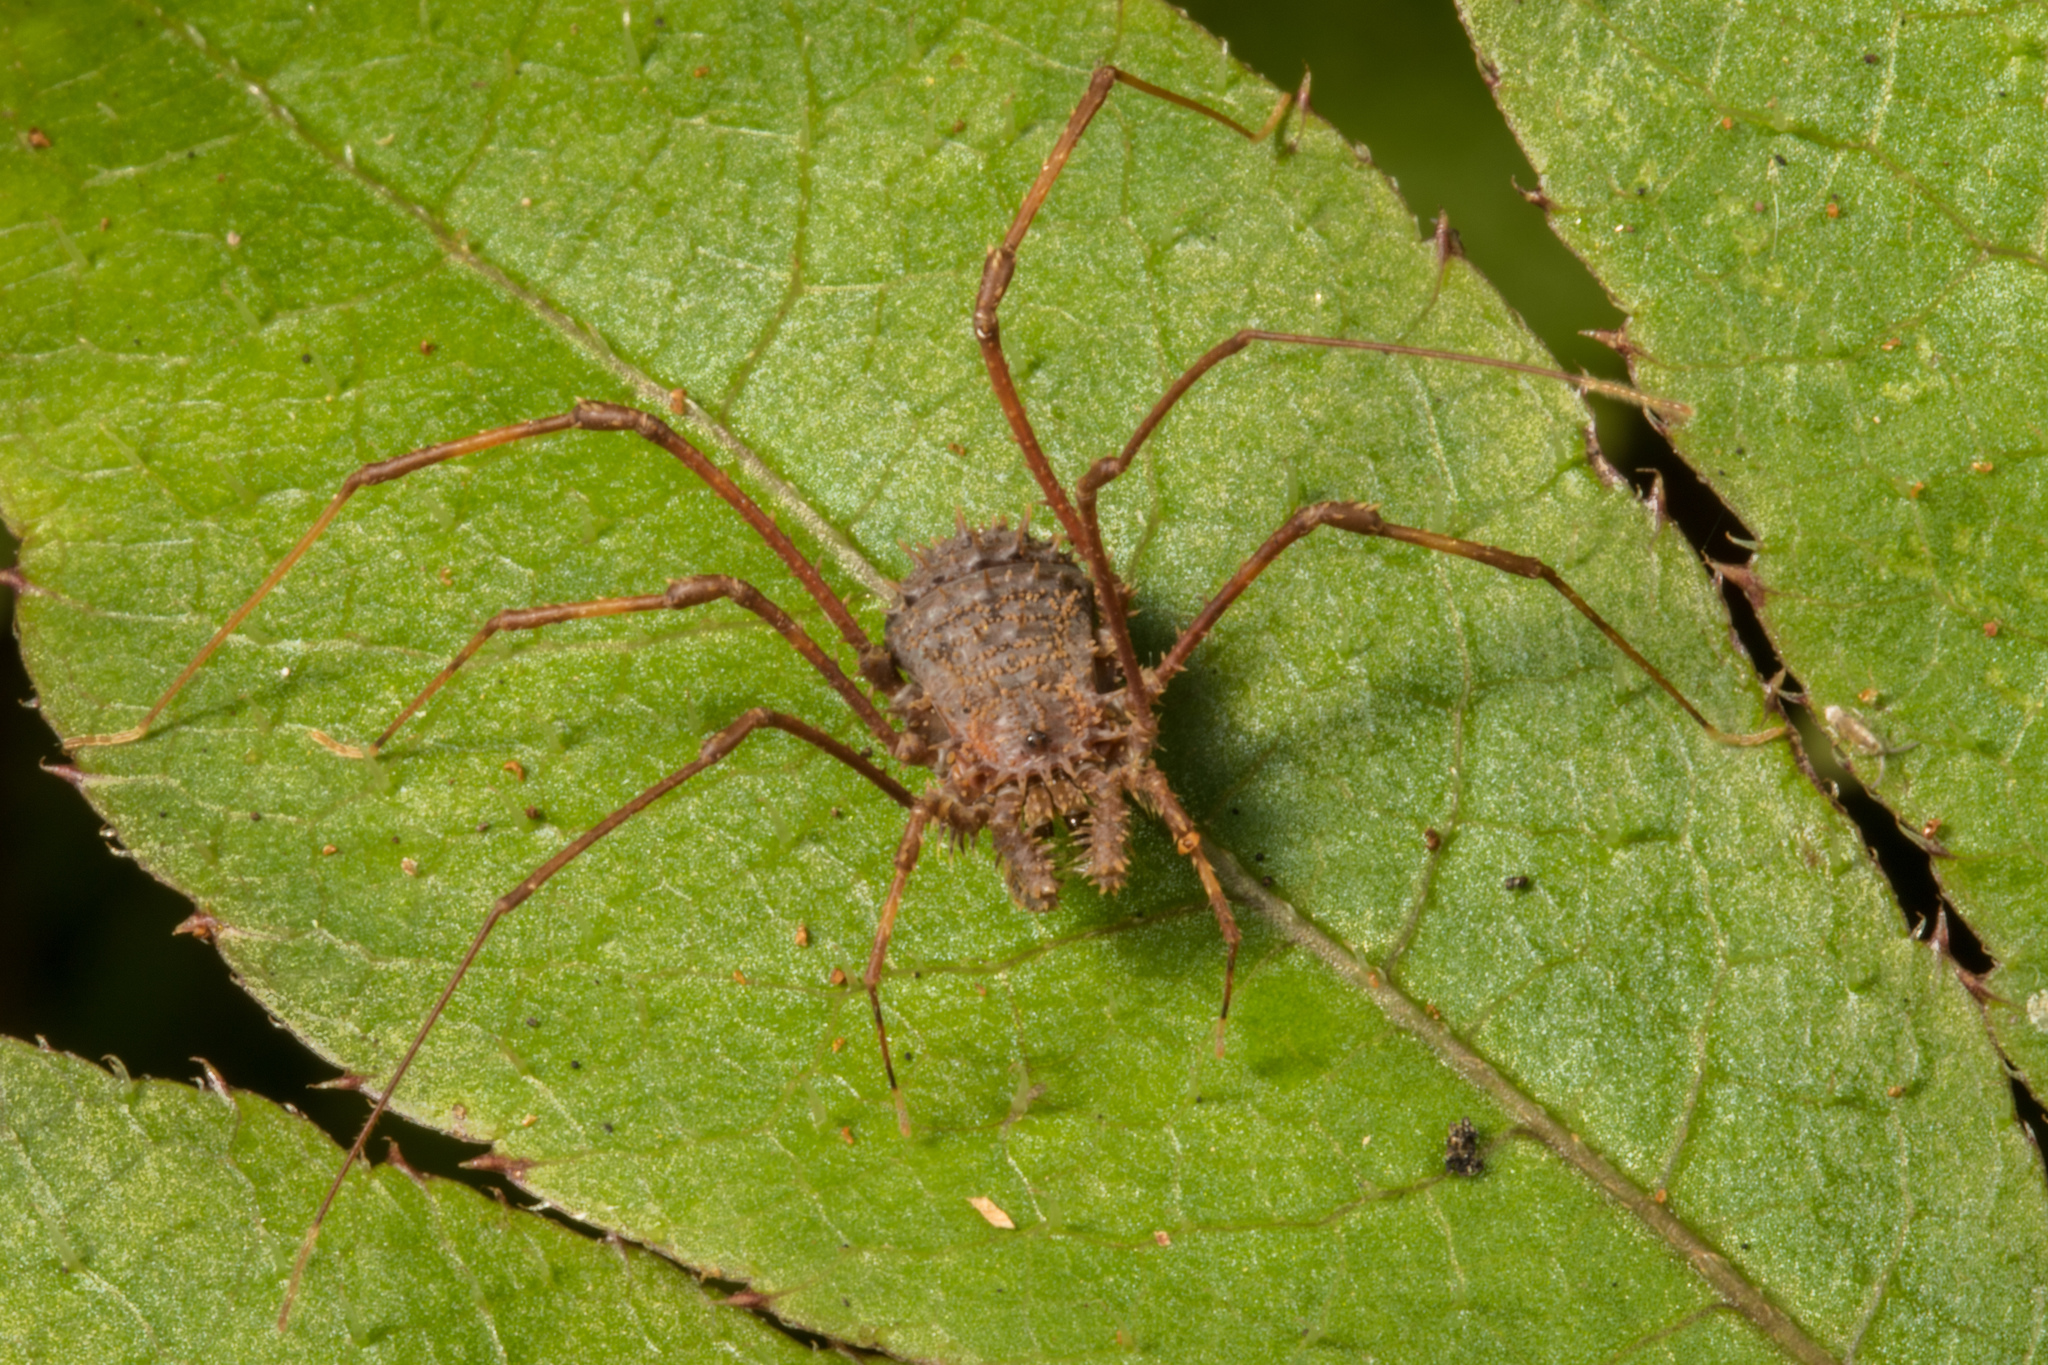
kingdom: Animalia
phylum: Arthropoda
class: Arachnida
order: Opiliones
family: Triaenonychidae
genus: Triregia
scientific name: Triregia bilineata
